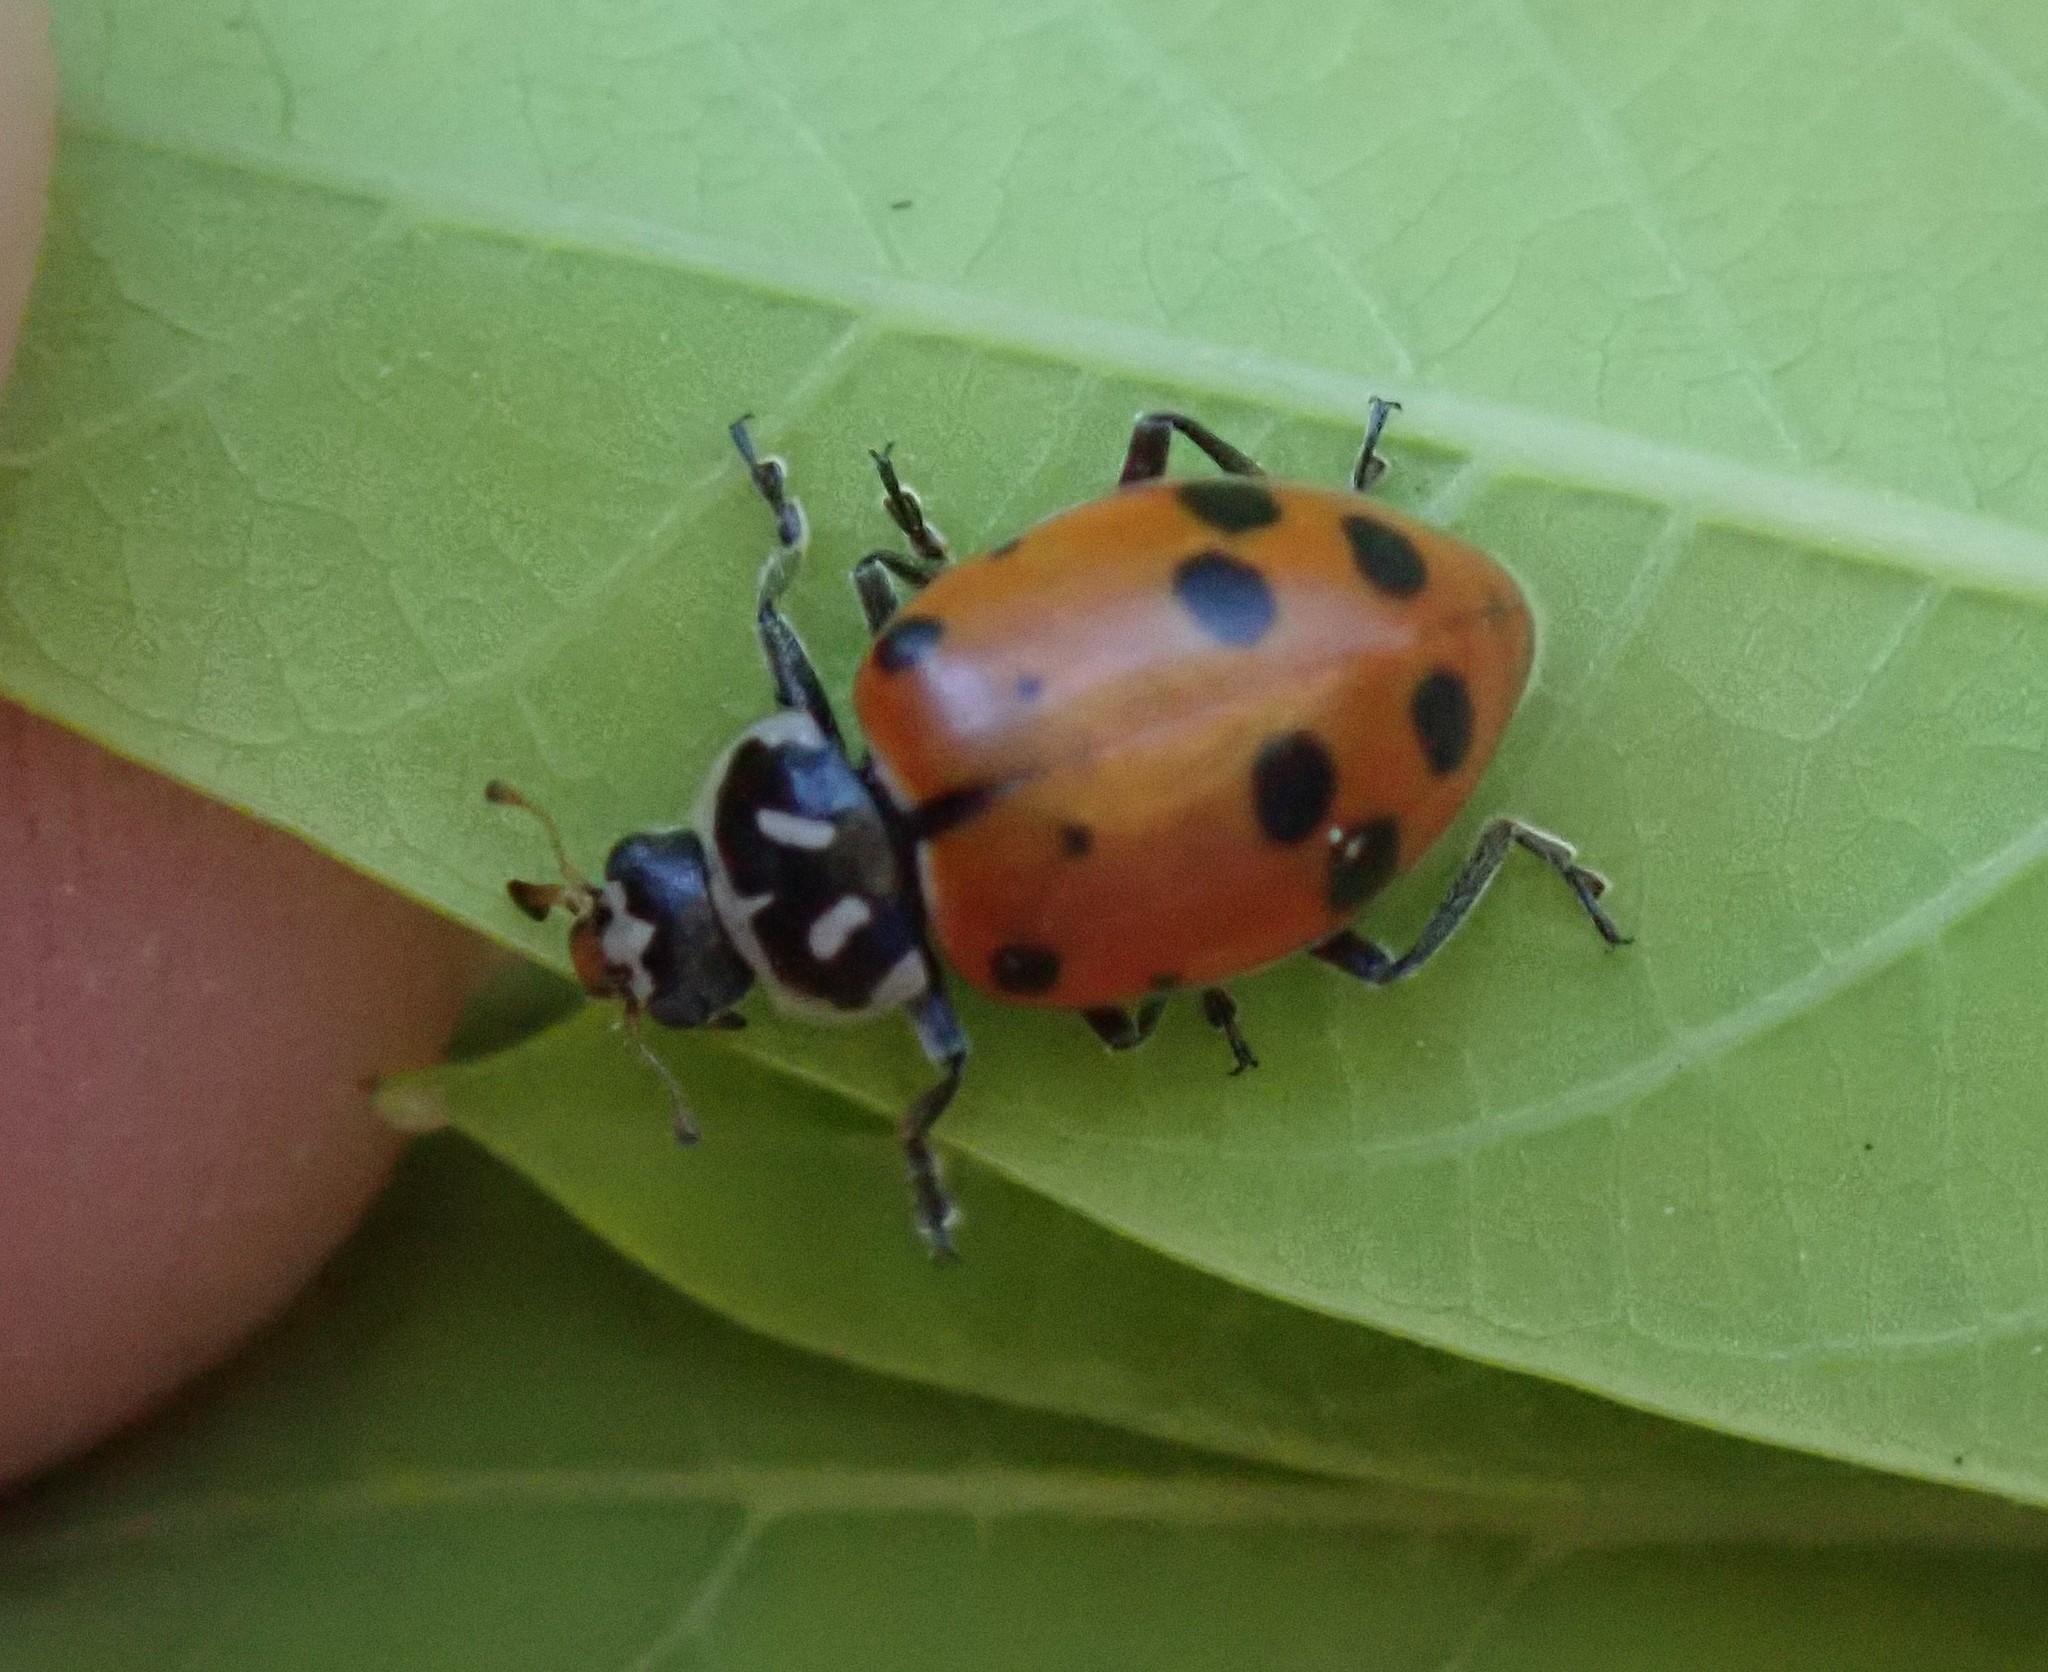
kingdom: Animalia
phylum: Arthropoda
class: Insecta
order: Coleoptera
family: Coccinellidae
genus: Hippodamia
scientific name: Hippodamia convergens
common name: Convergent lady beetle
